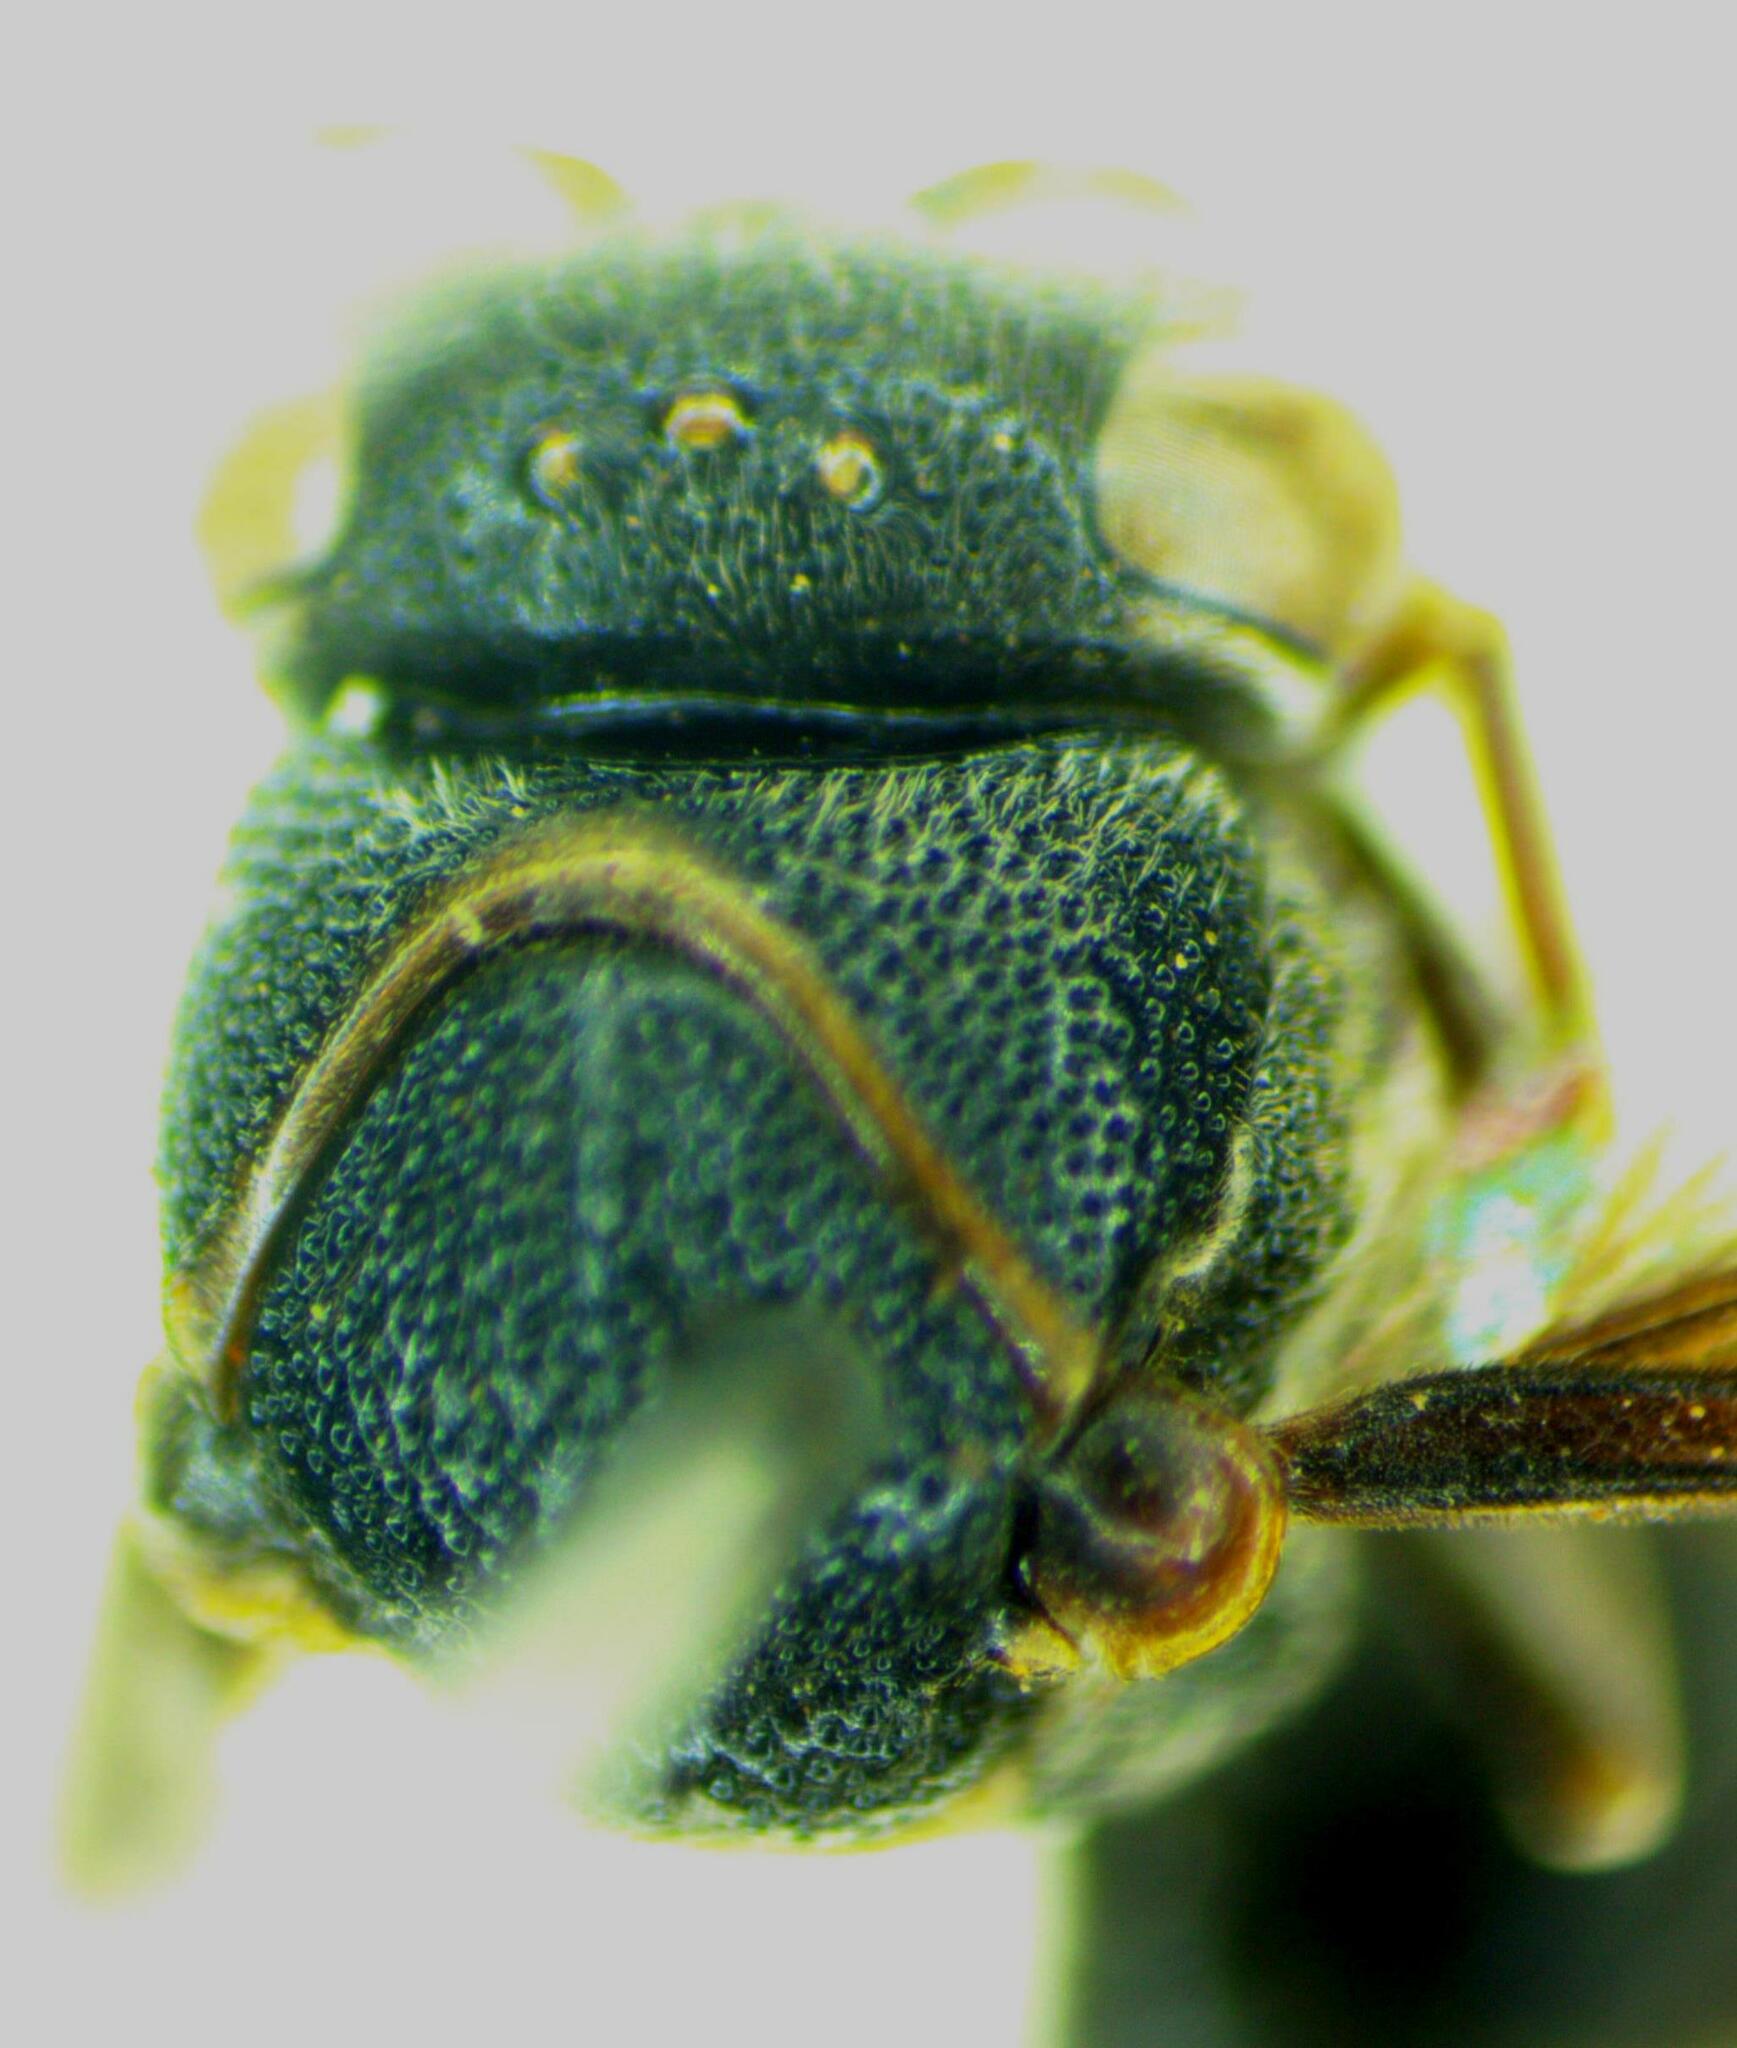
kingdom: Animalia
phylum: Arthropoda
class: Insecta
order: Hymenoptera
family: Eumenidae
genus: Omicron
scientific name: Omicron opifex
